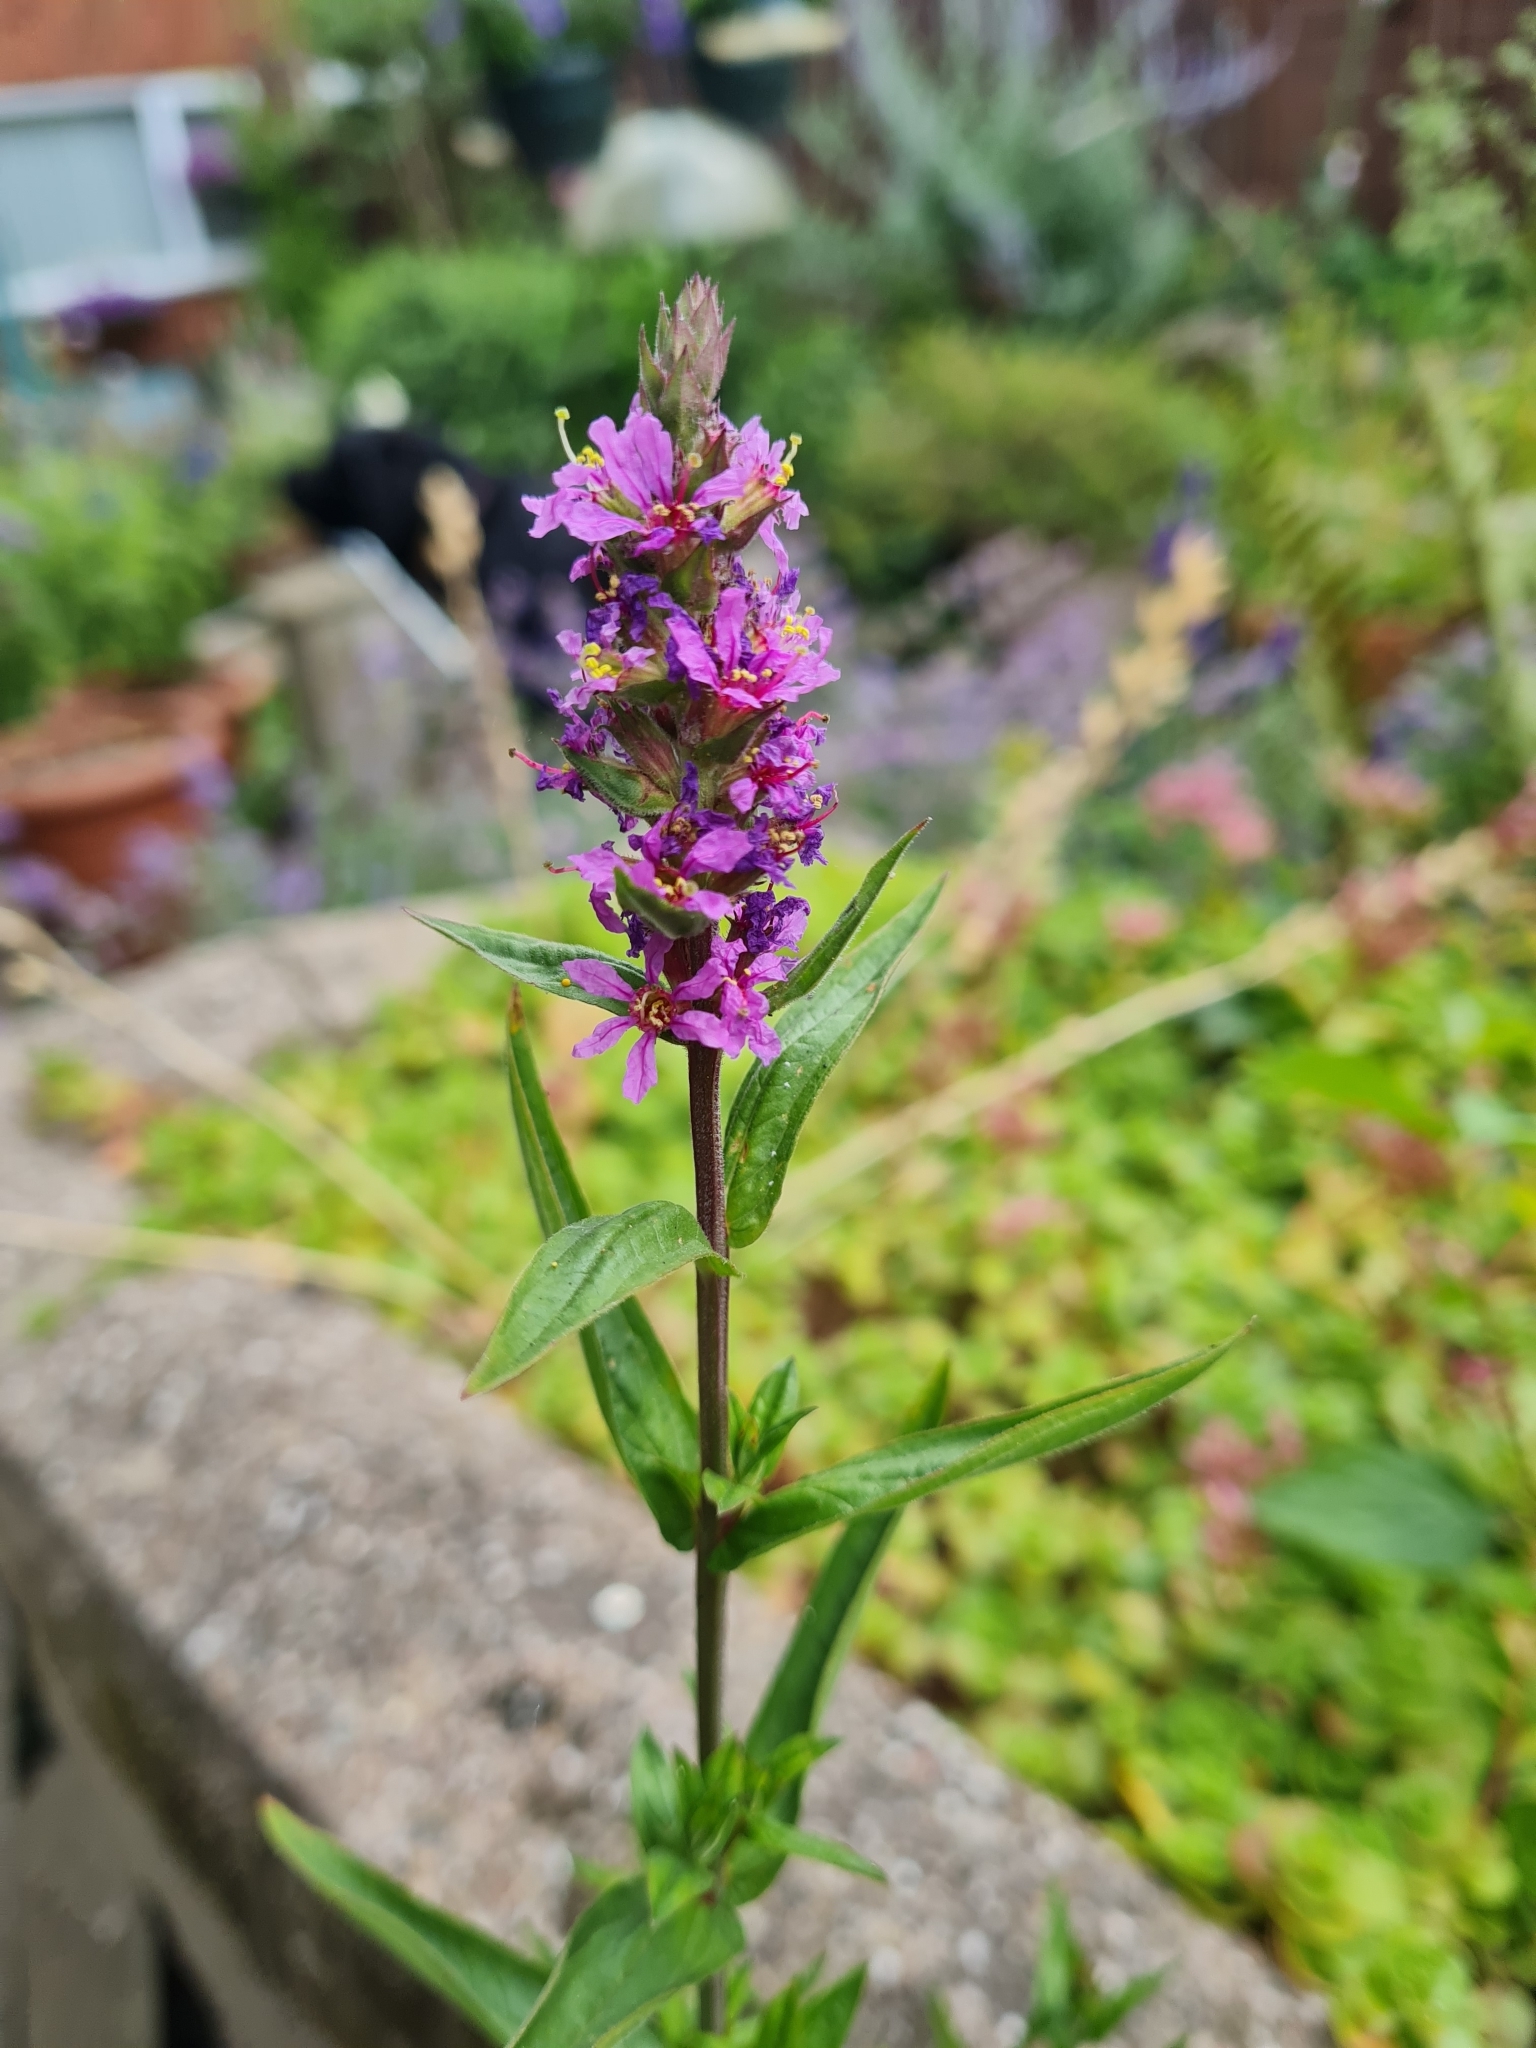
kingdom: Plantae
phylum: Tracheophyta
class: Magnoliopsida
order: Myrtales
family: Lythraceae
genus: Lythrum
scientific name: Lythrum salicaria
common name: Purple loosestrife
